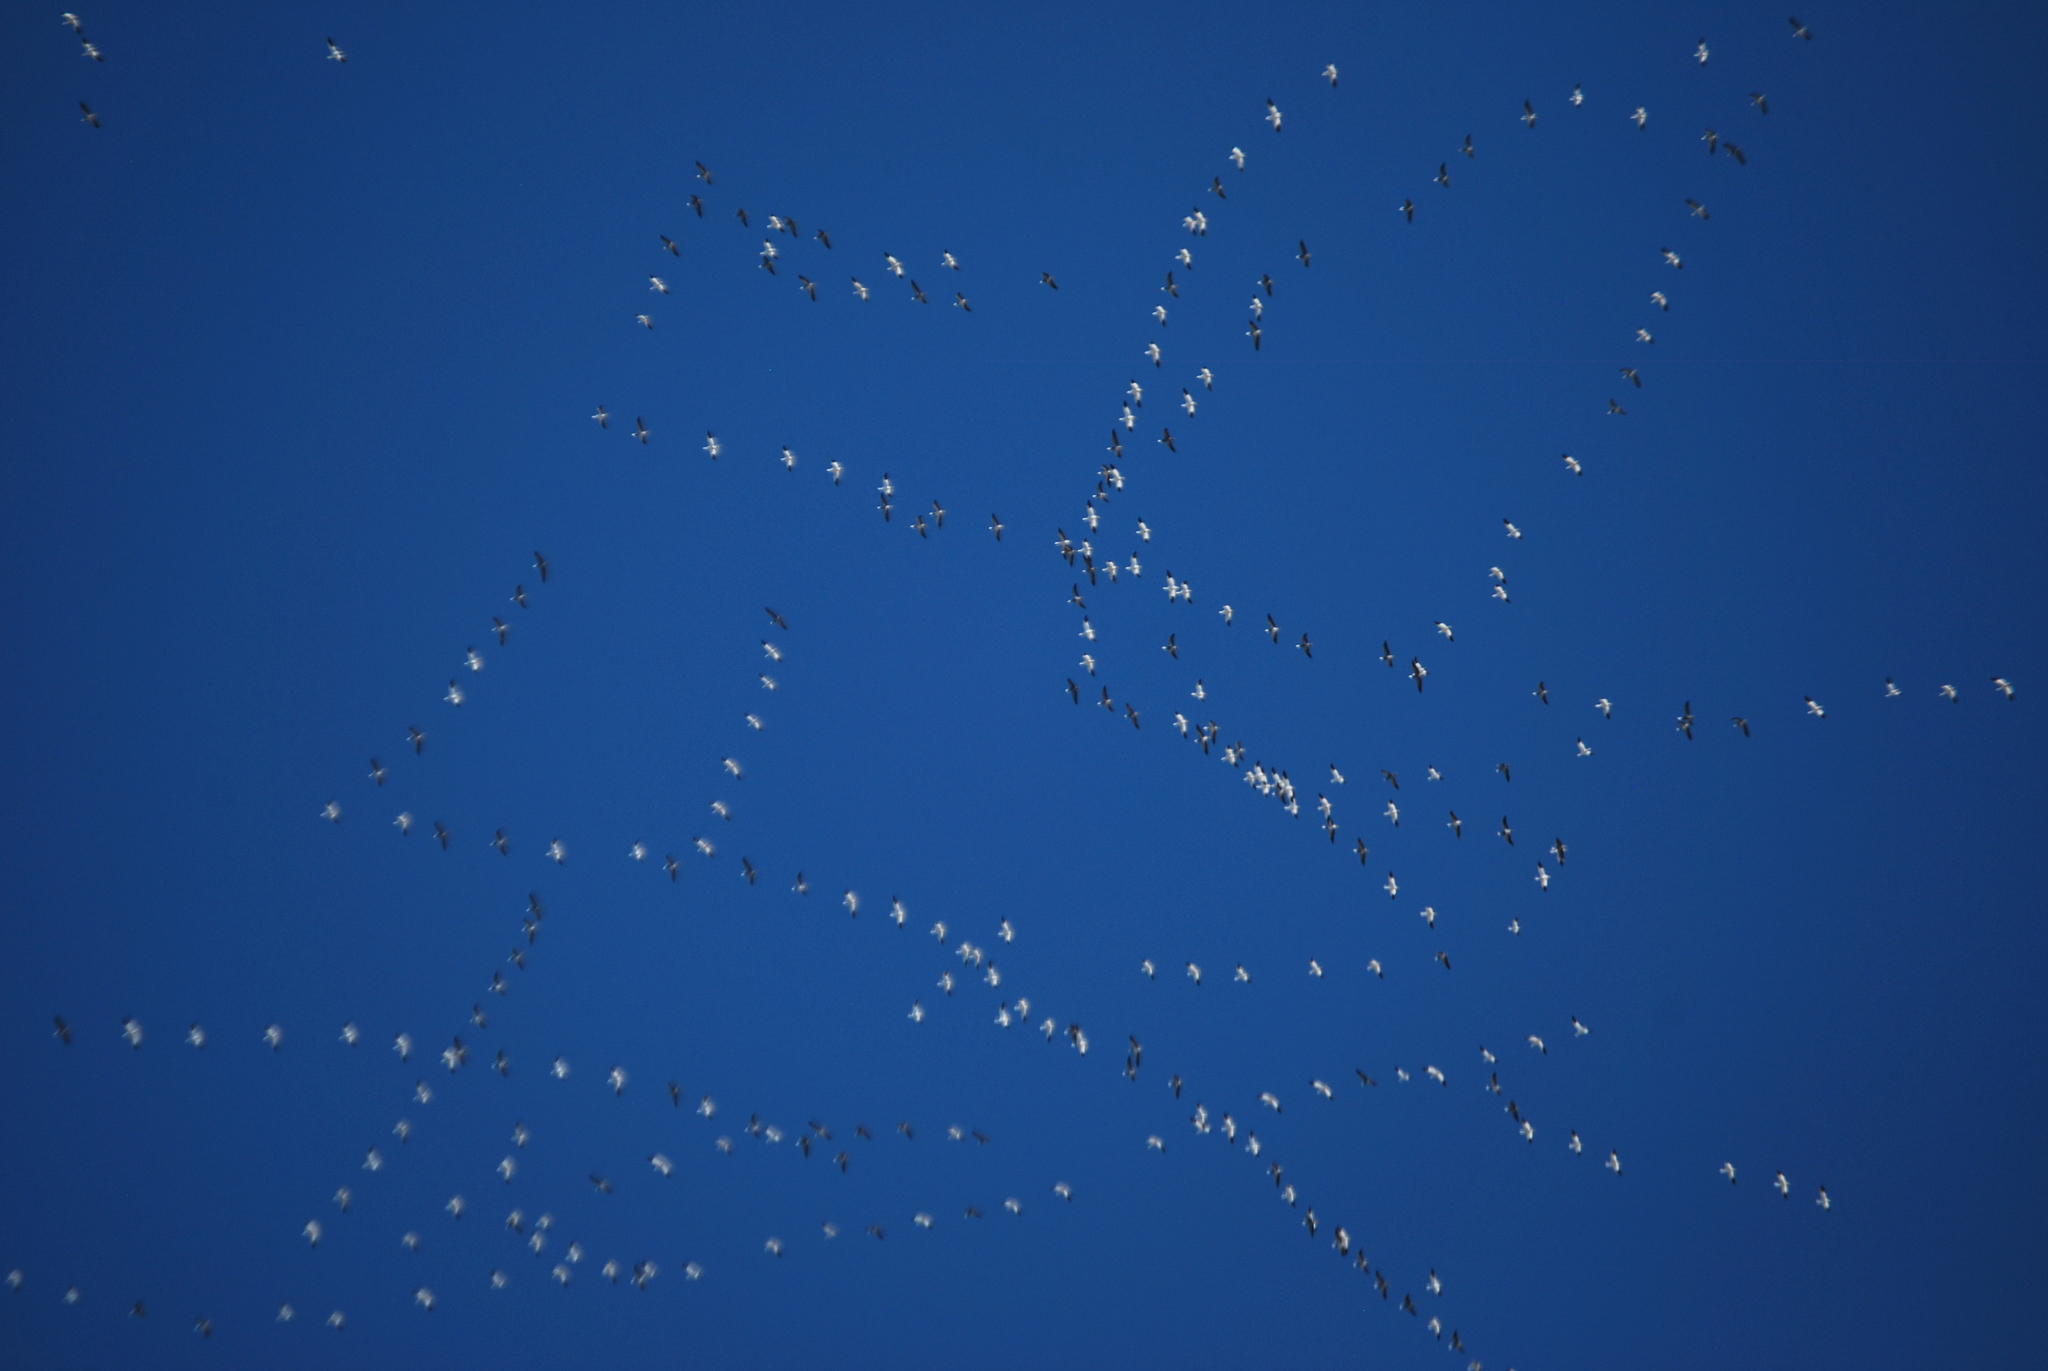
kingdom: Animalia
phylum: Chordata
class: Aves
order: Anseriformes
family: Anatidae
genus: Anser
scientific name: Anser caerulescens
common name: Snow goose
